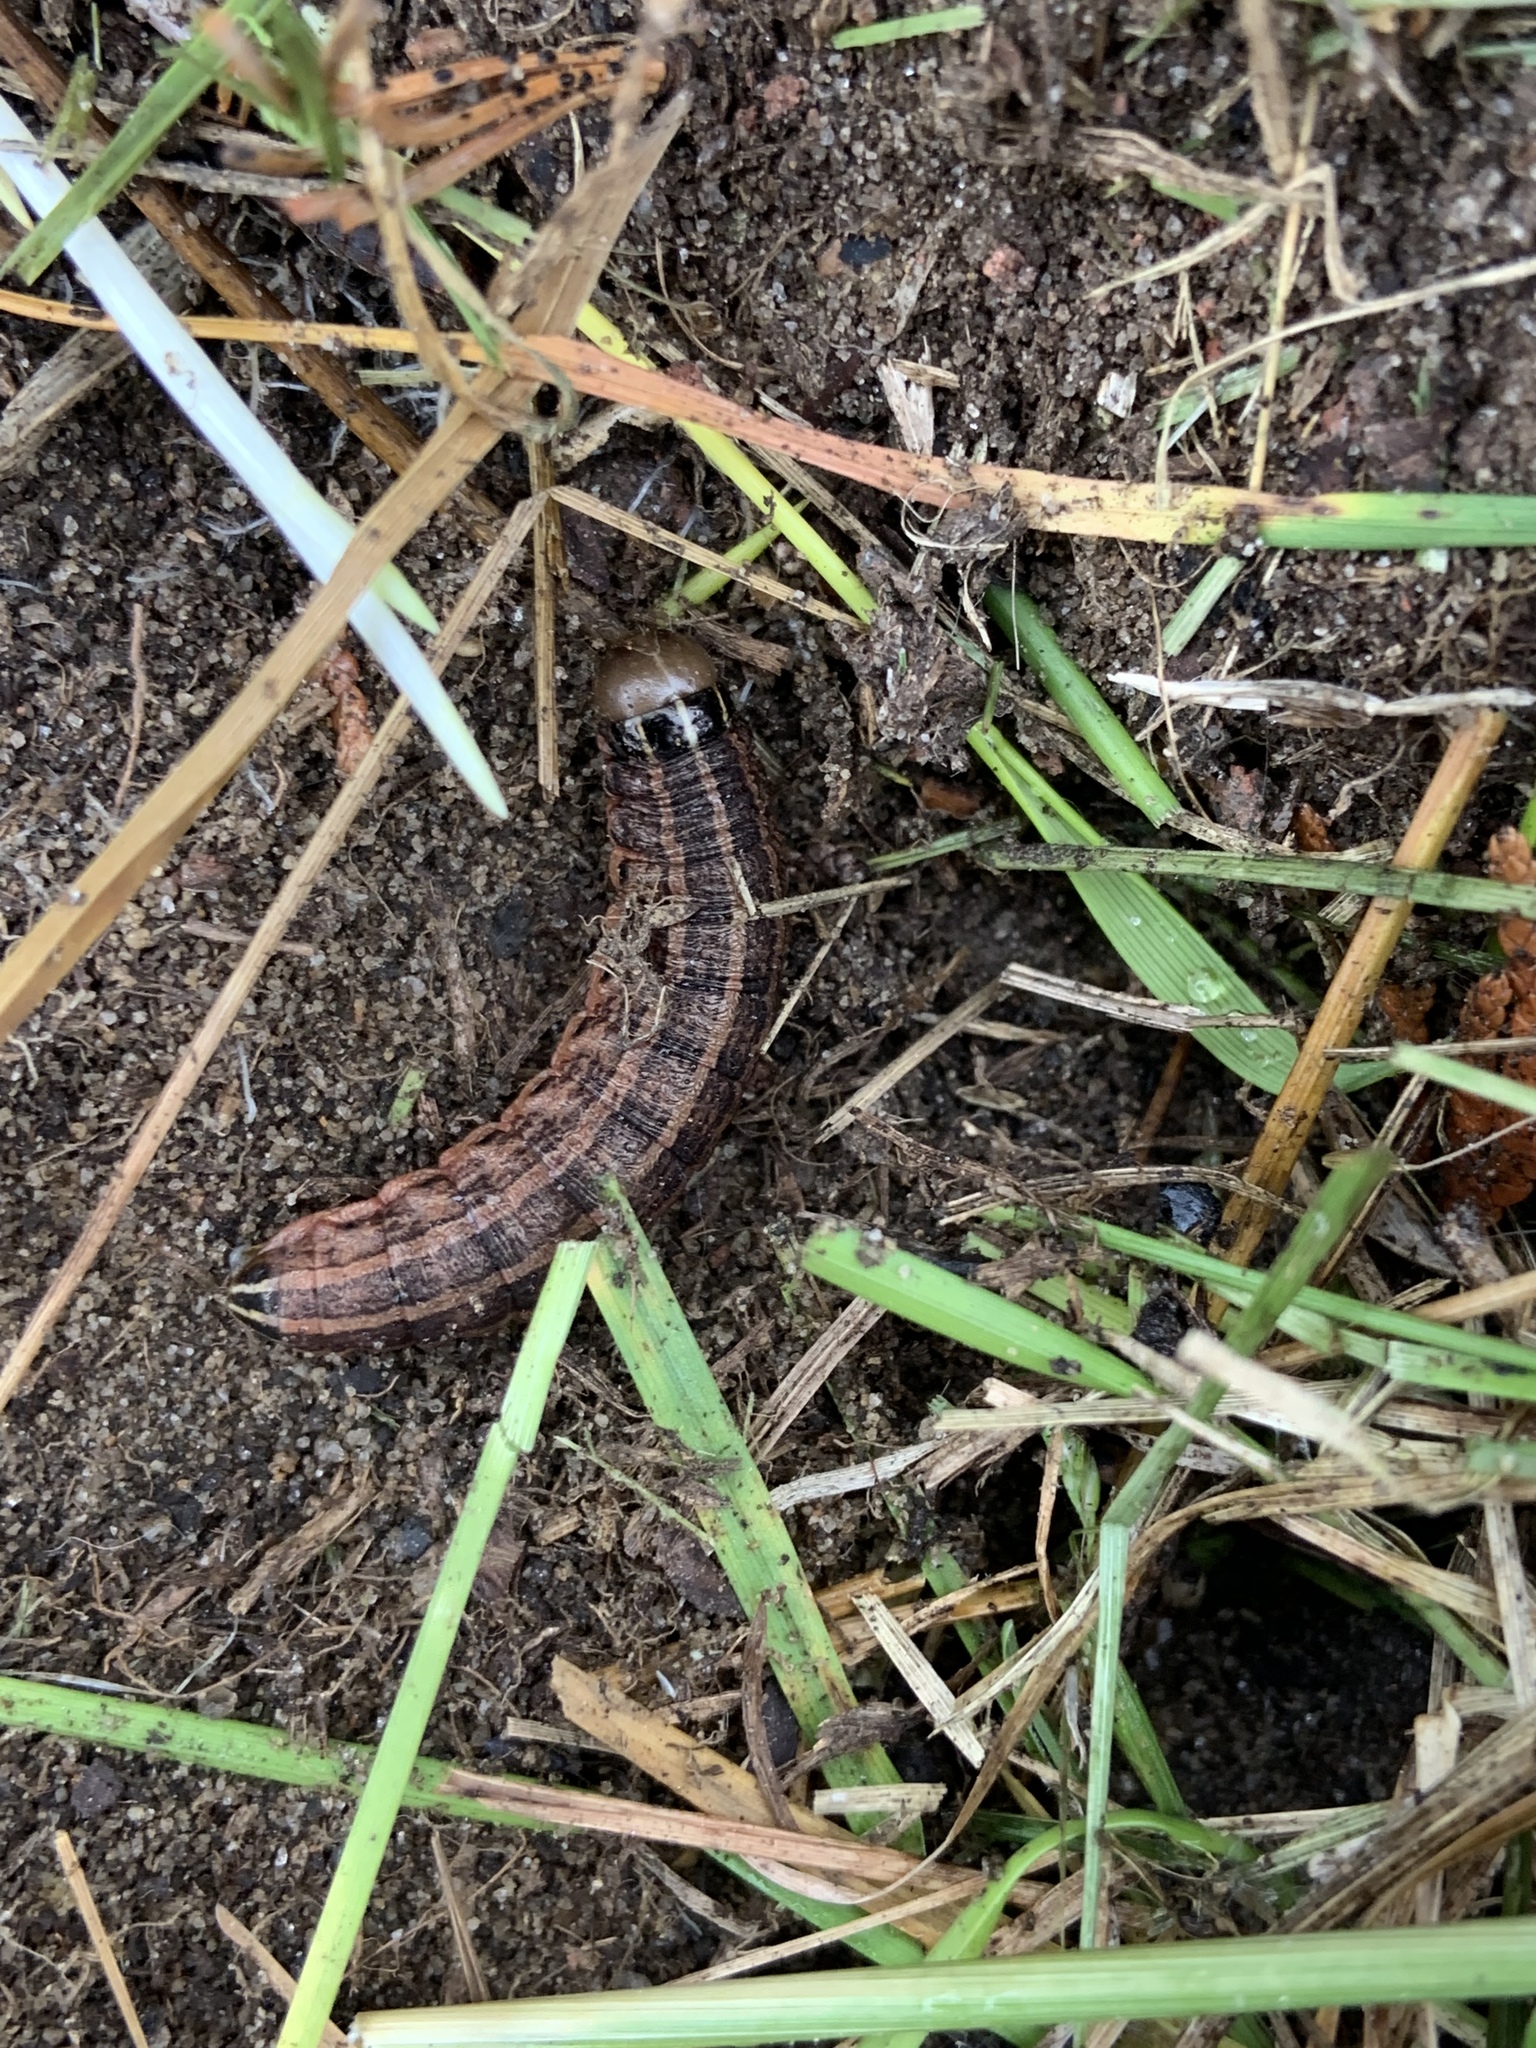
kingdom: Animalia
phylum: Arthropoda
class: Insecta
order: Lepidoptera
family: Noctuidae
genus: Nephelodes
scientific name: Nephelodes minians
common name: Bronzed cutworm
